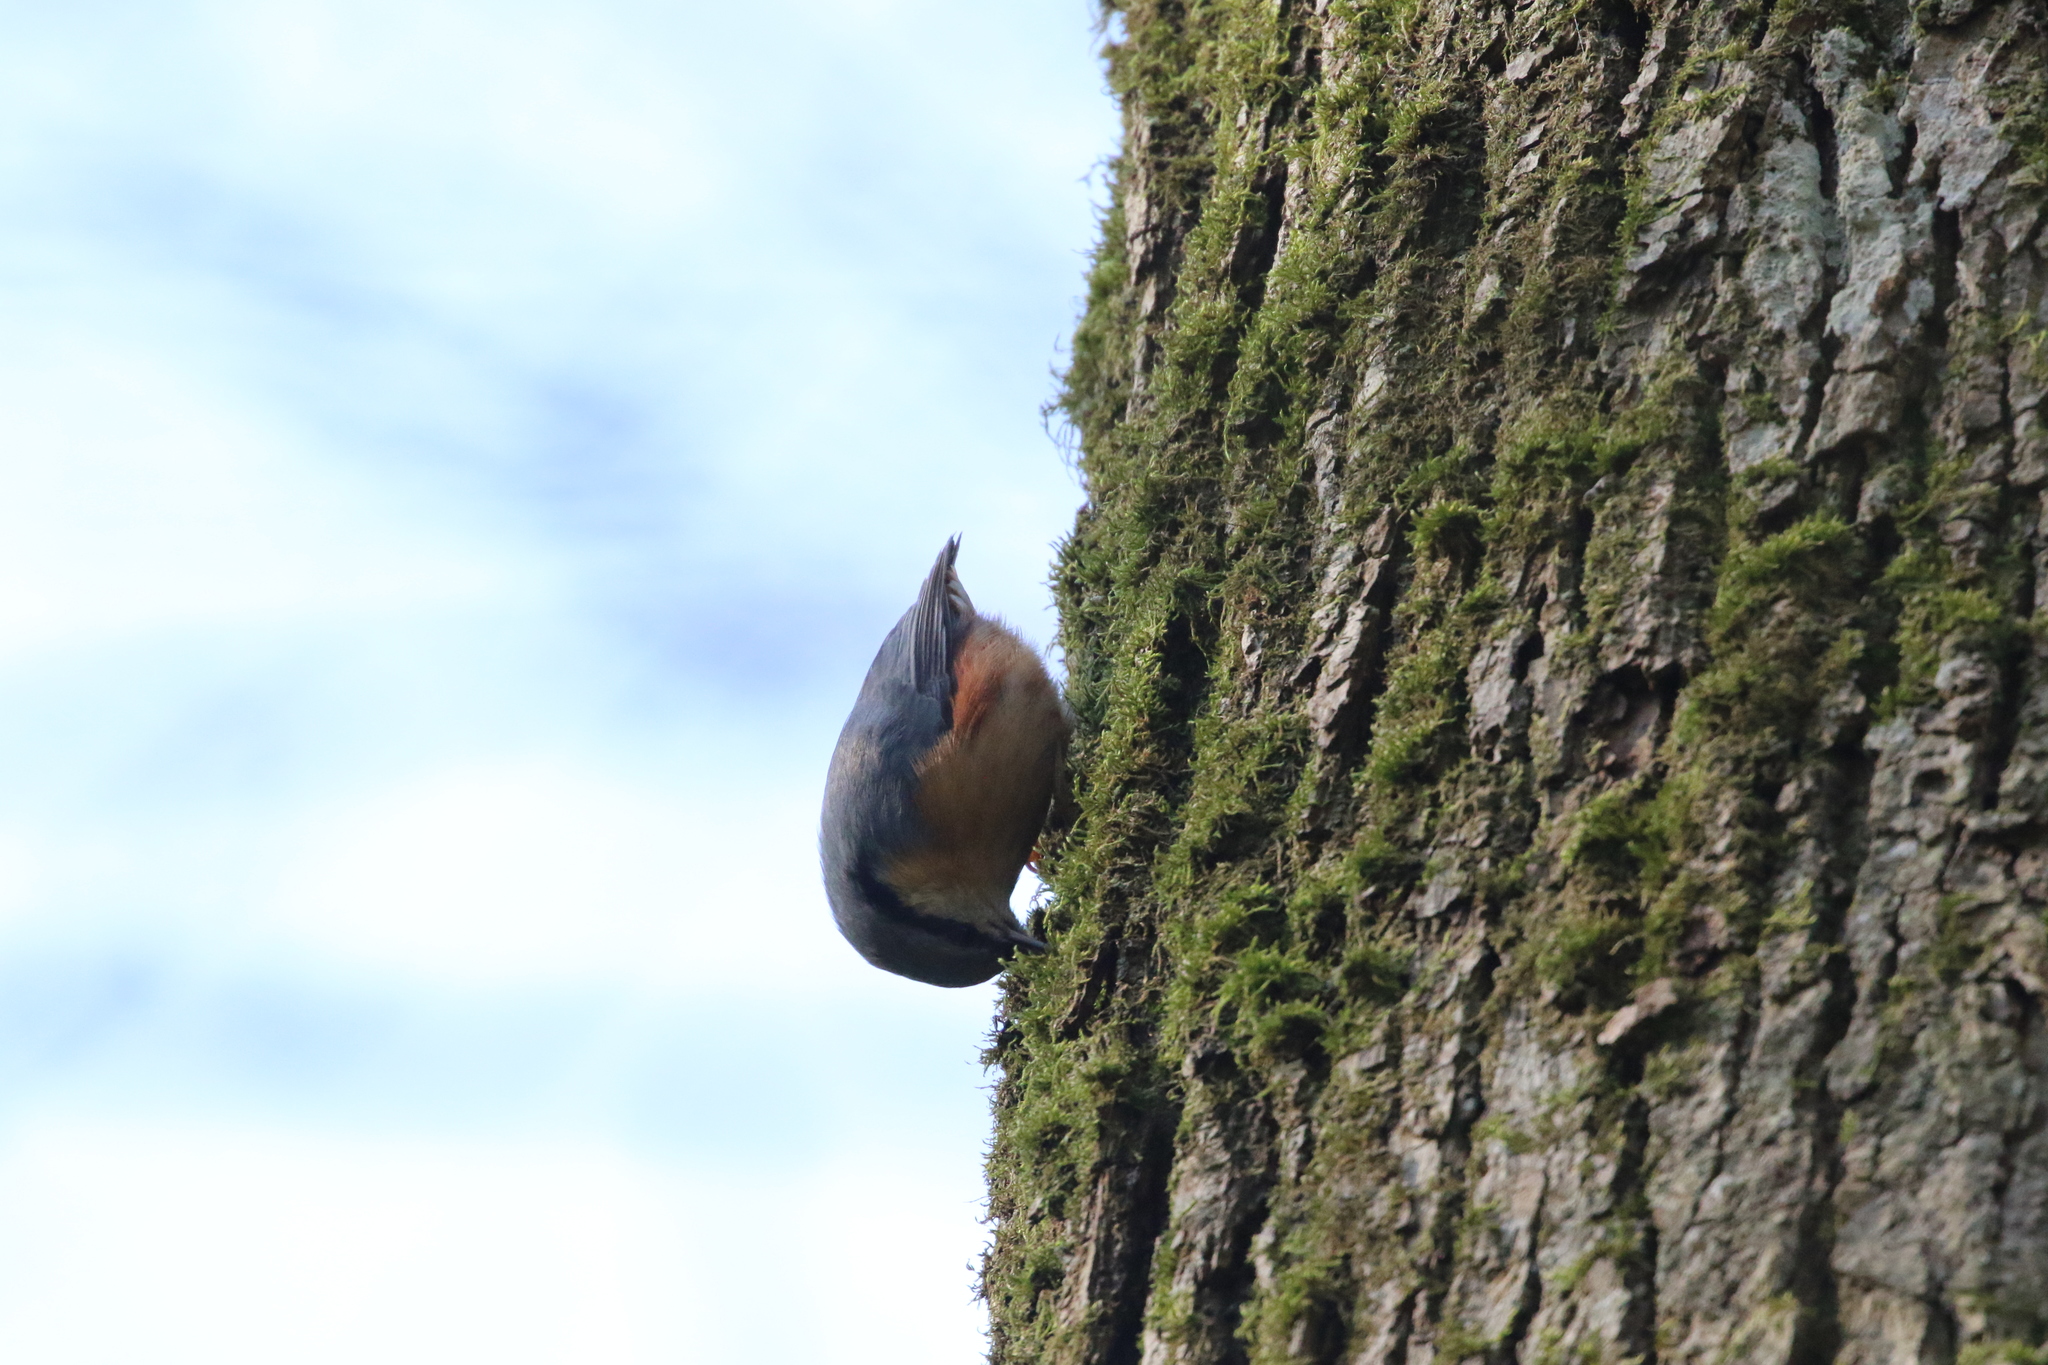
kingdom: Animalia
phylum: Chordata
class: Aves
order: Passeriformes
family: Sittidae
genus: Sitta
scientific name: Sitta europaea
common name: Eurasian nuthatch
